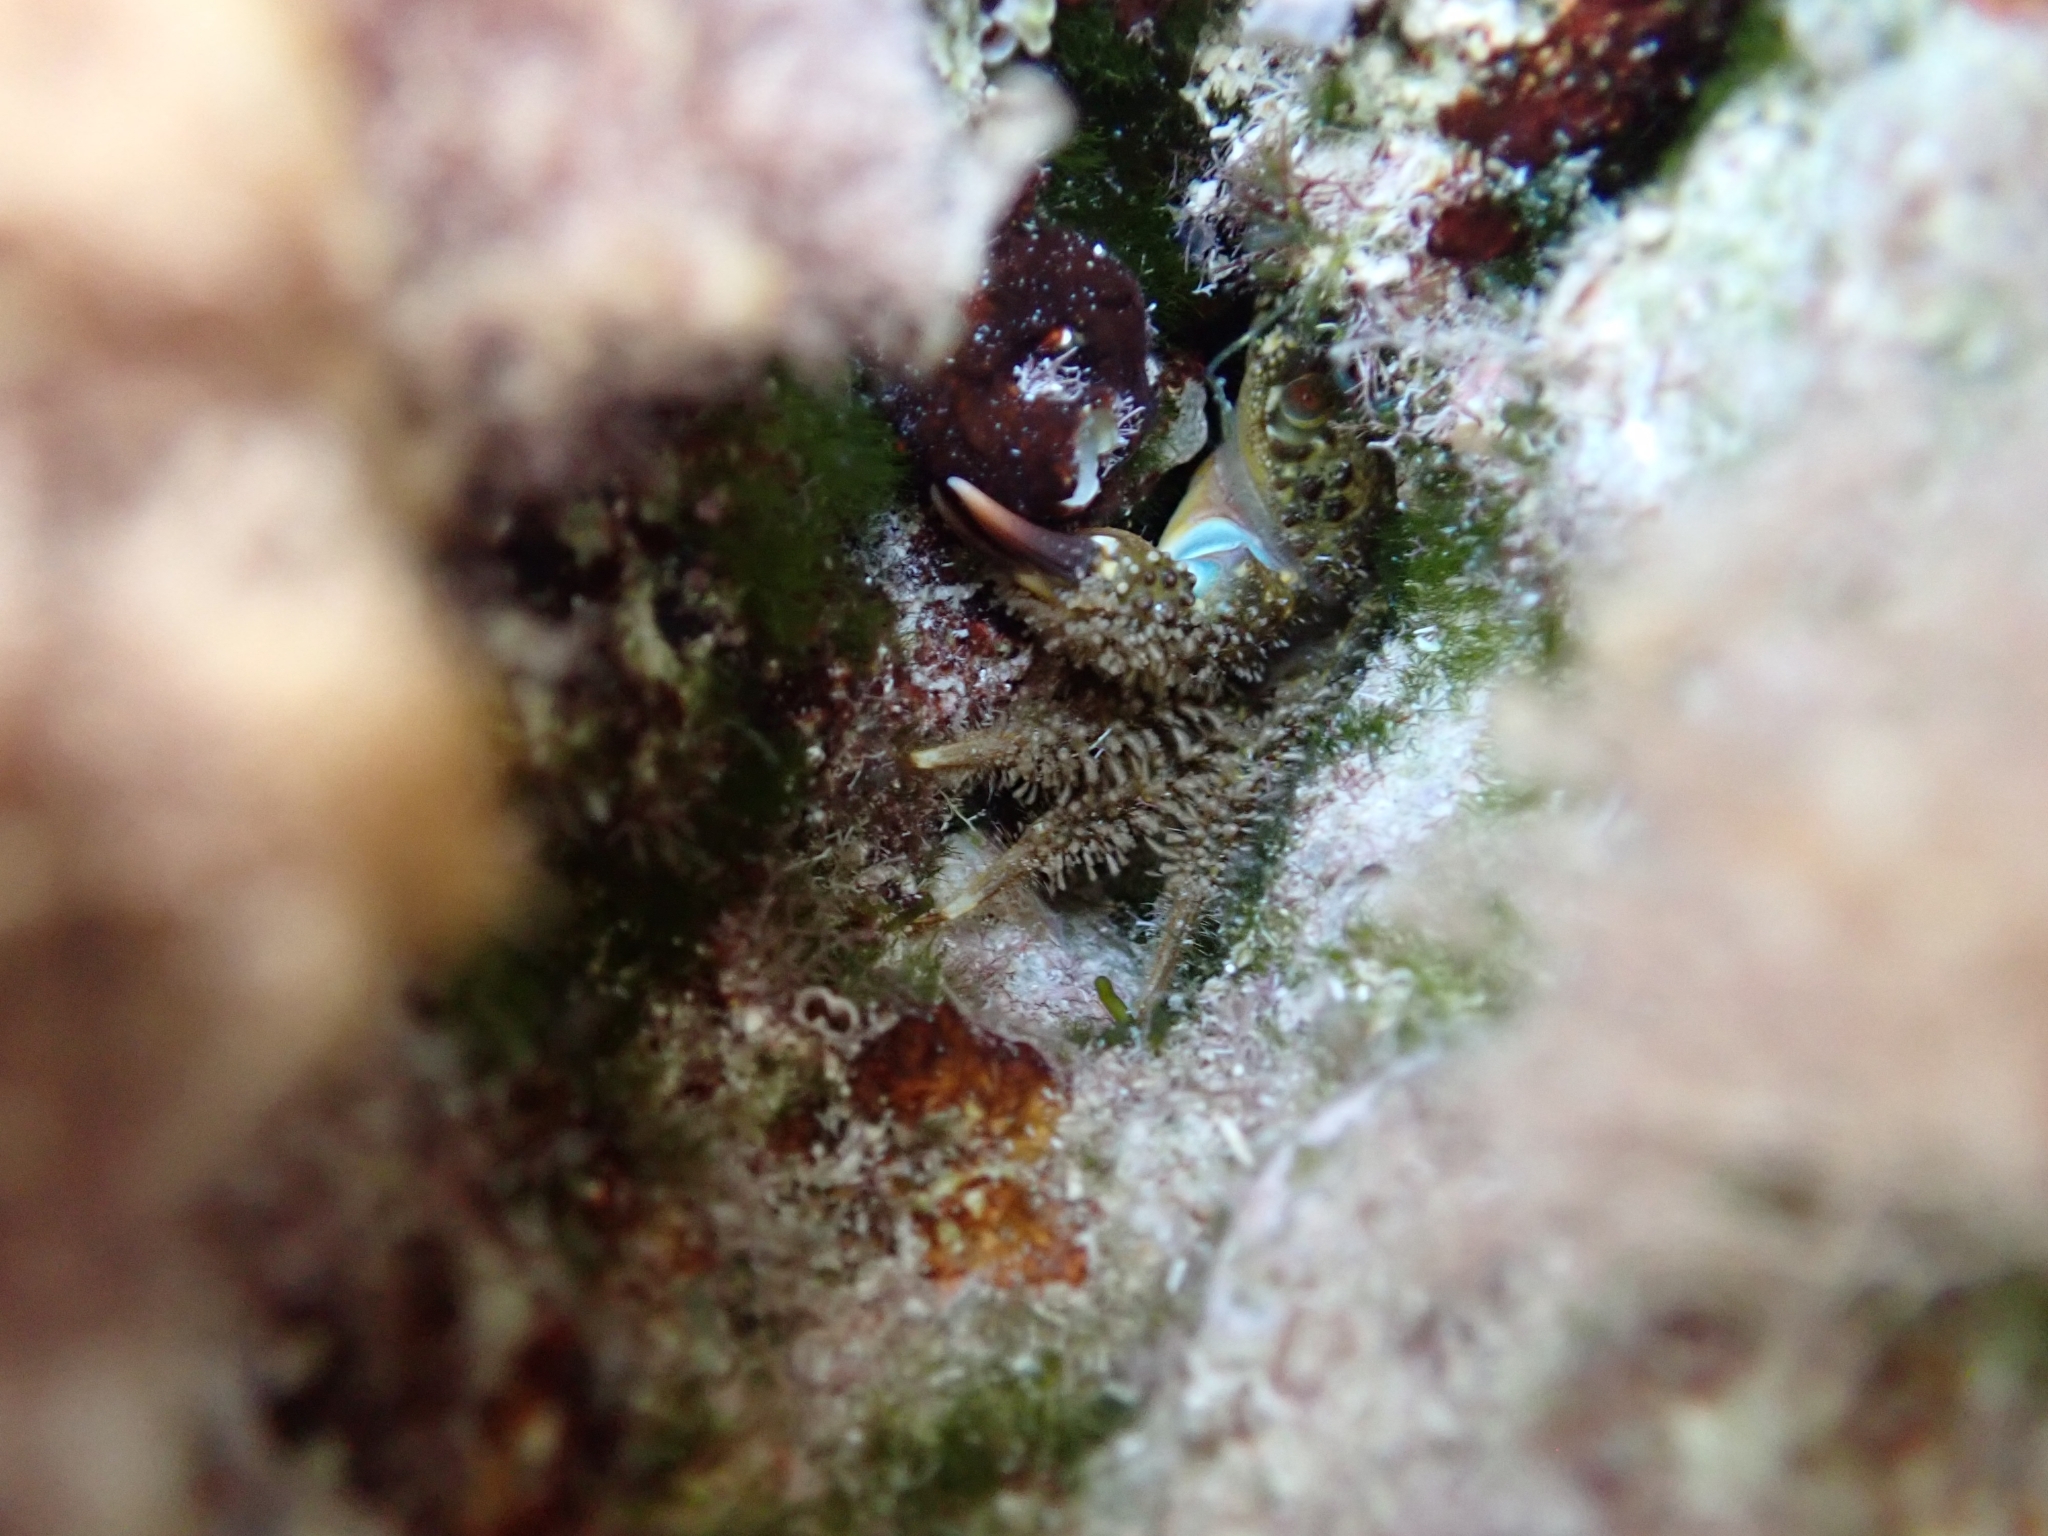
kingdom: Animalia
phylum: Arthropoda
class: Malacostraca
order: Decapoda
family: Eriphiidae
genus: Eriphia
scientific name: Eriphia verrucosa
